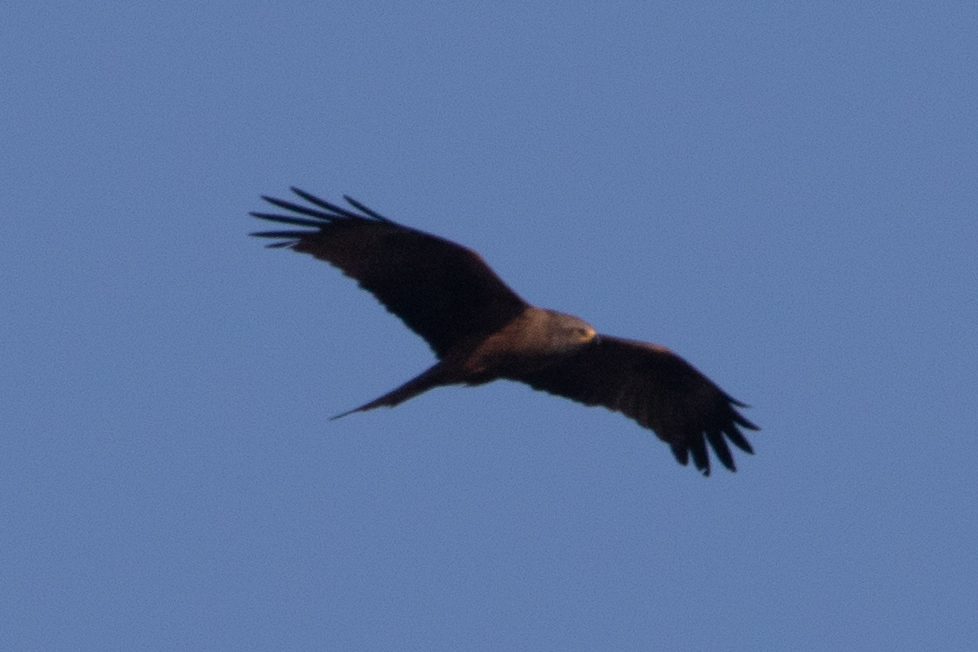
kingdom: Animalia
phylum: Chordata
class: Aves
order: Accipitriformes
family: Accipitridae
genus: Milvus
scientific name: Milvus migrans
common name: Black kite
